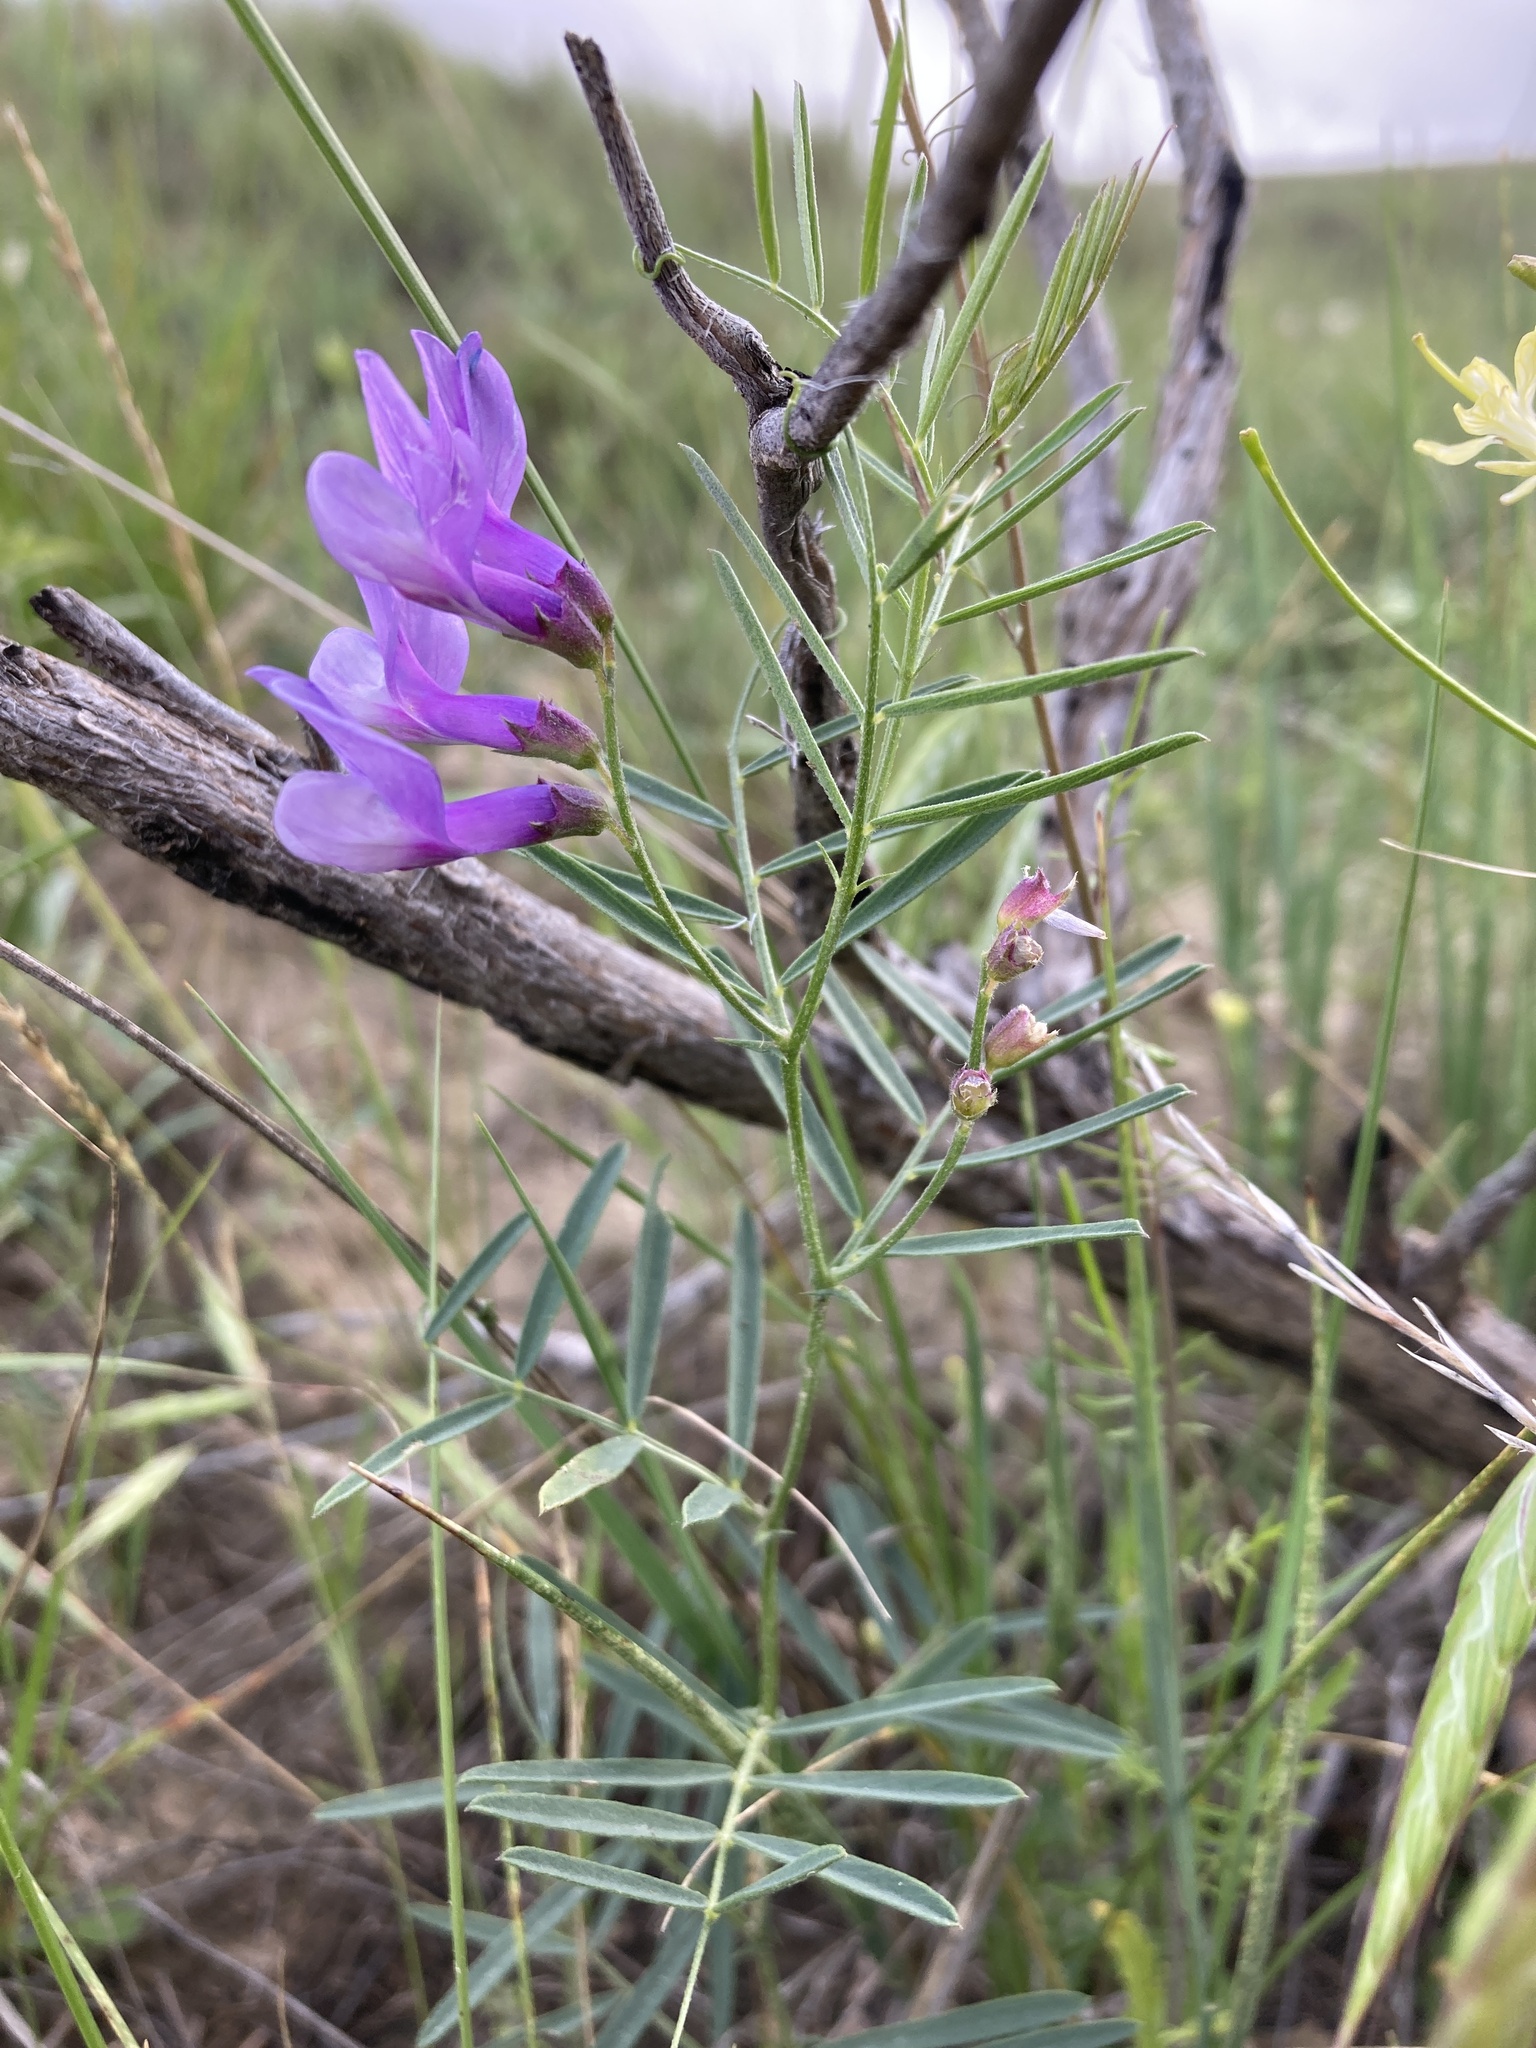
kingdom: Plantae
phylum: Tracheophyta
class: Magnoliopsida
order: Fabales
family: Fabaceae
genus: Vicia
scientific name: Vicia americana
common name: American vetch
